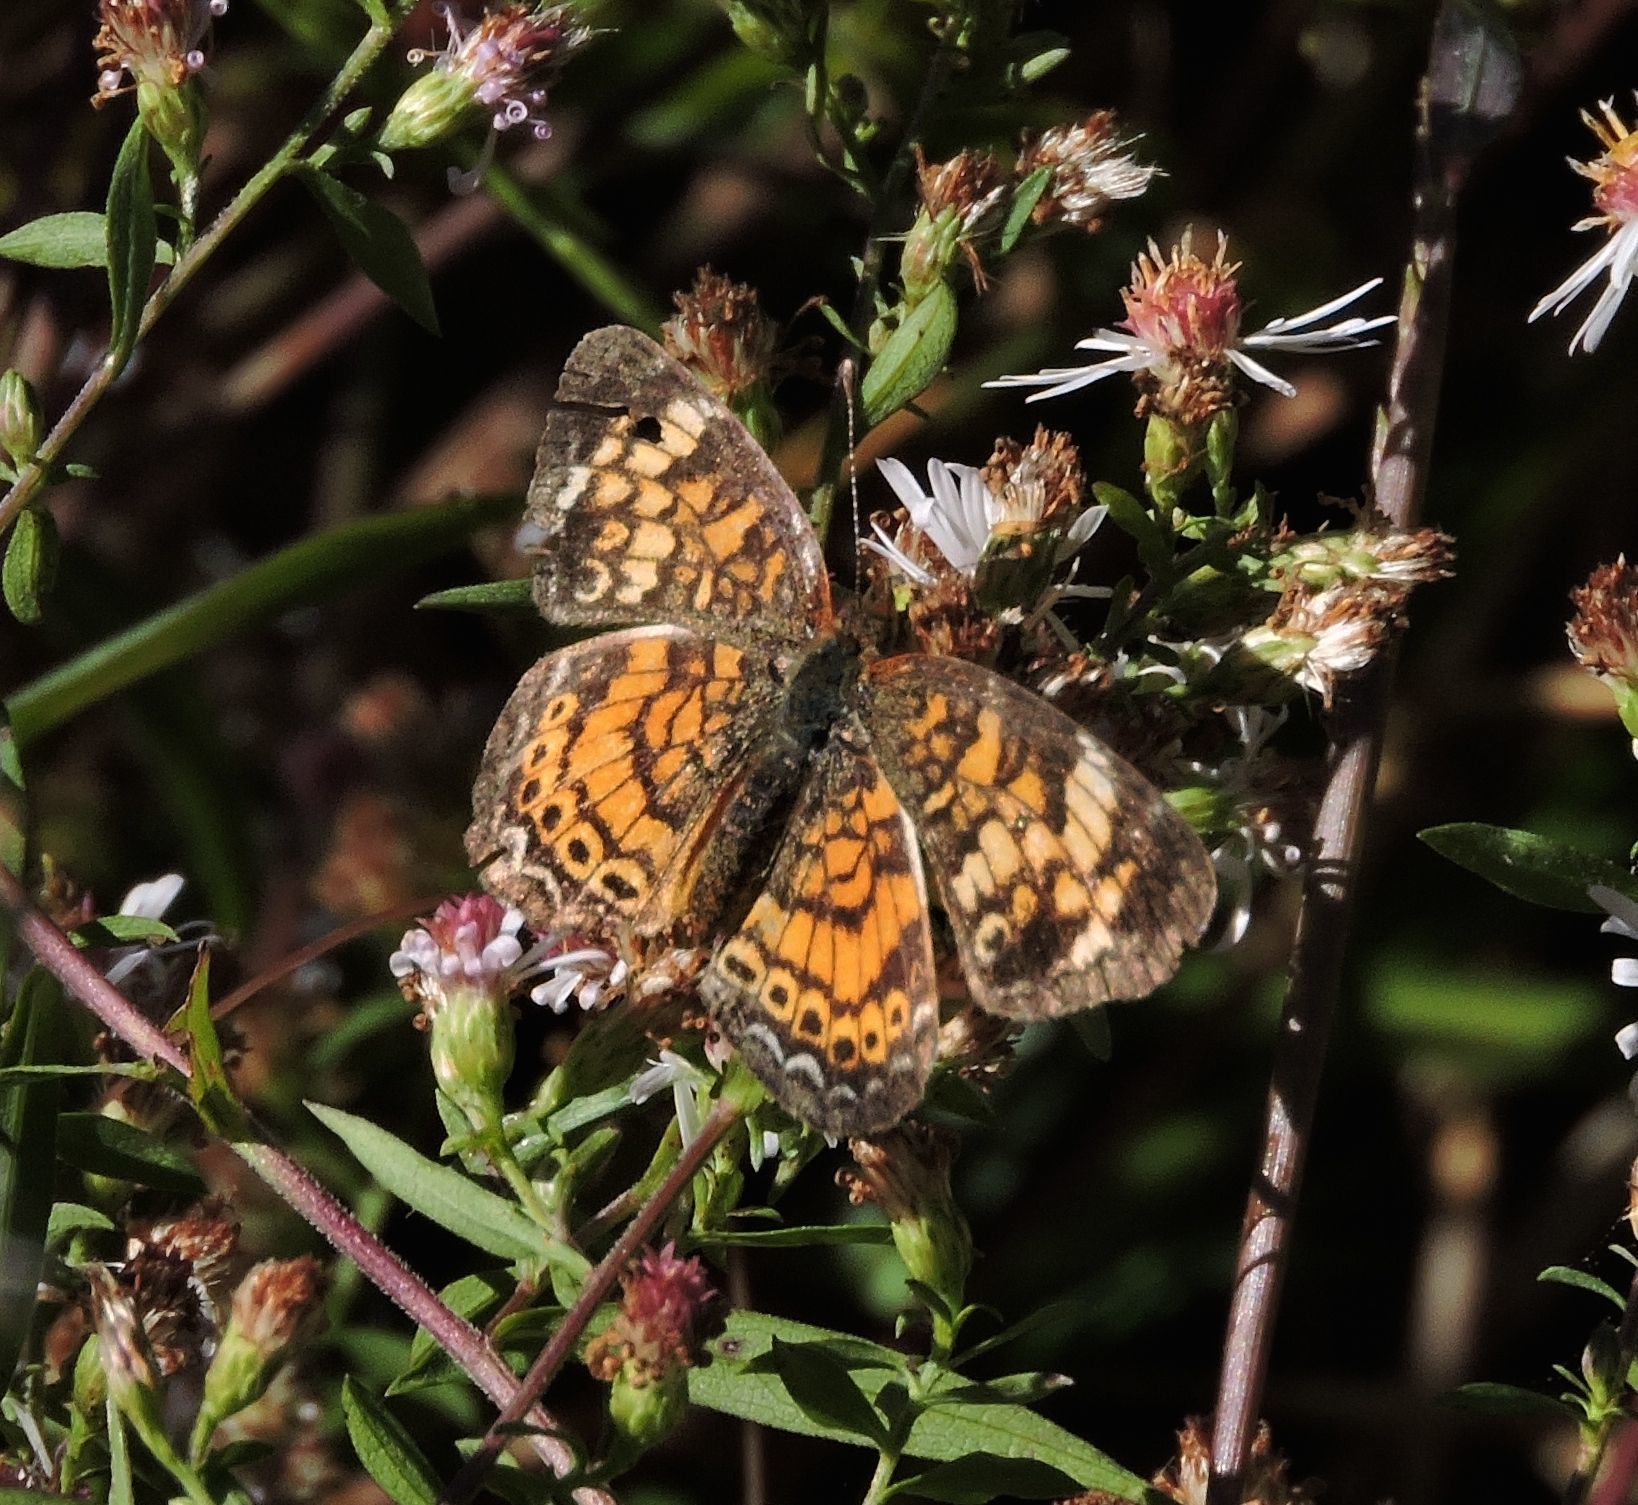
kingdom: Animalia
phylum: Arthropoda
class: Insecta
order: Lepidoptera
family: Nymphalidae
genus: Phyciodes
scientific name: Phyciodes tharos
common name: Pearl crescent
